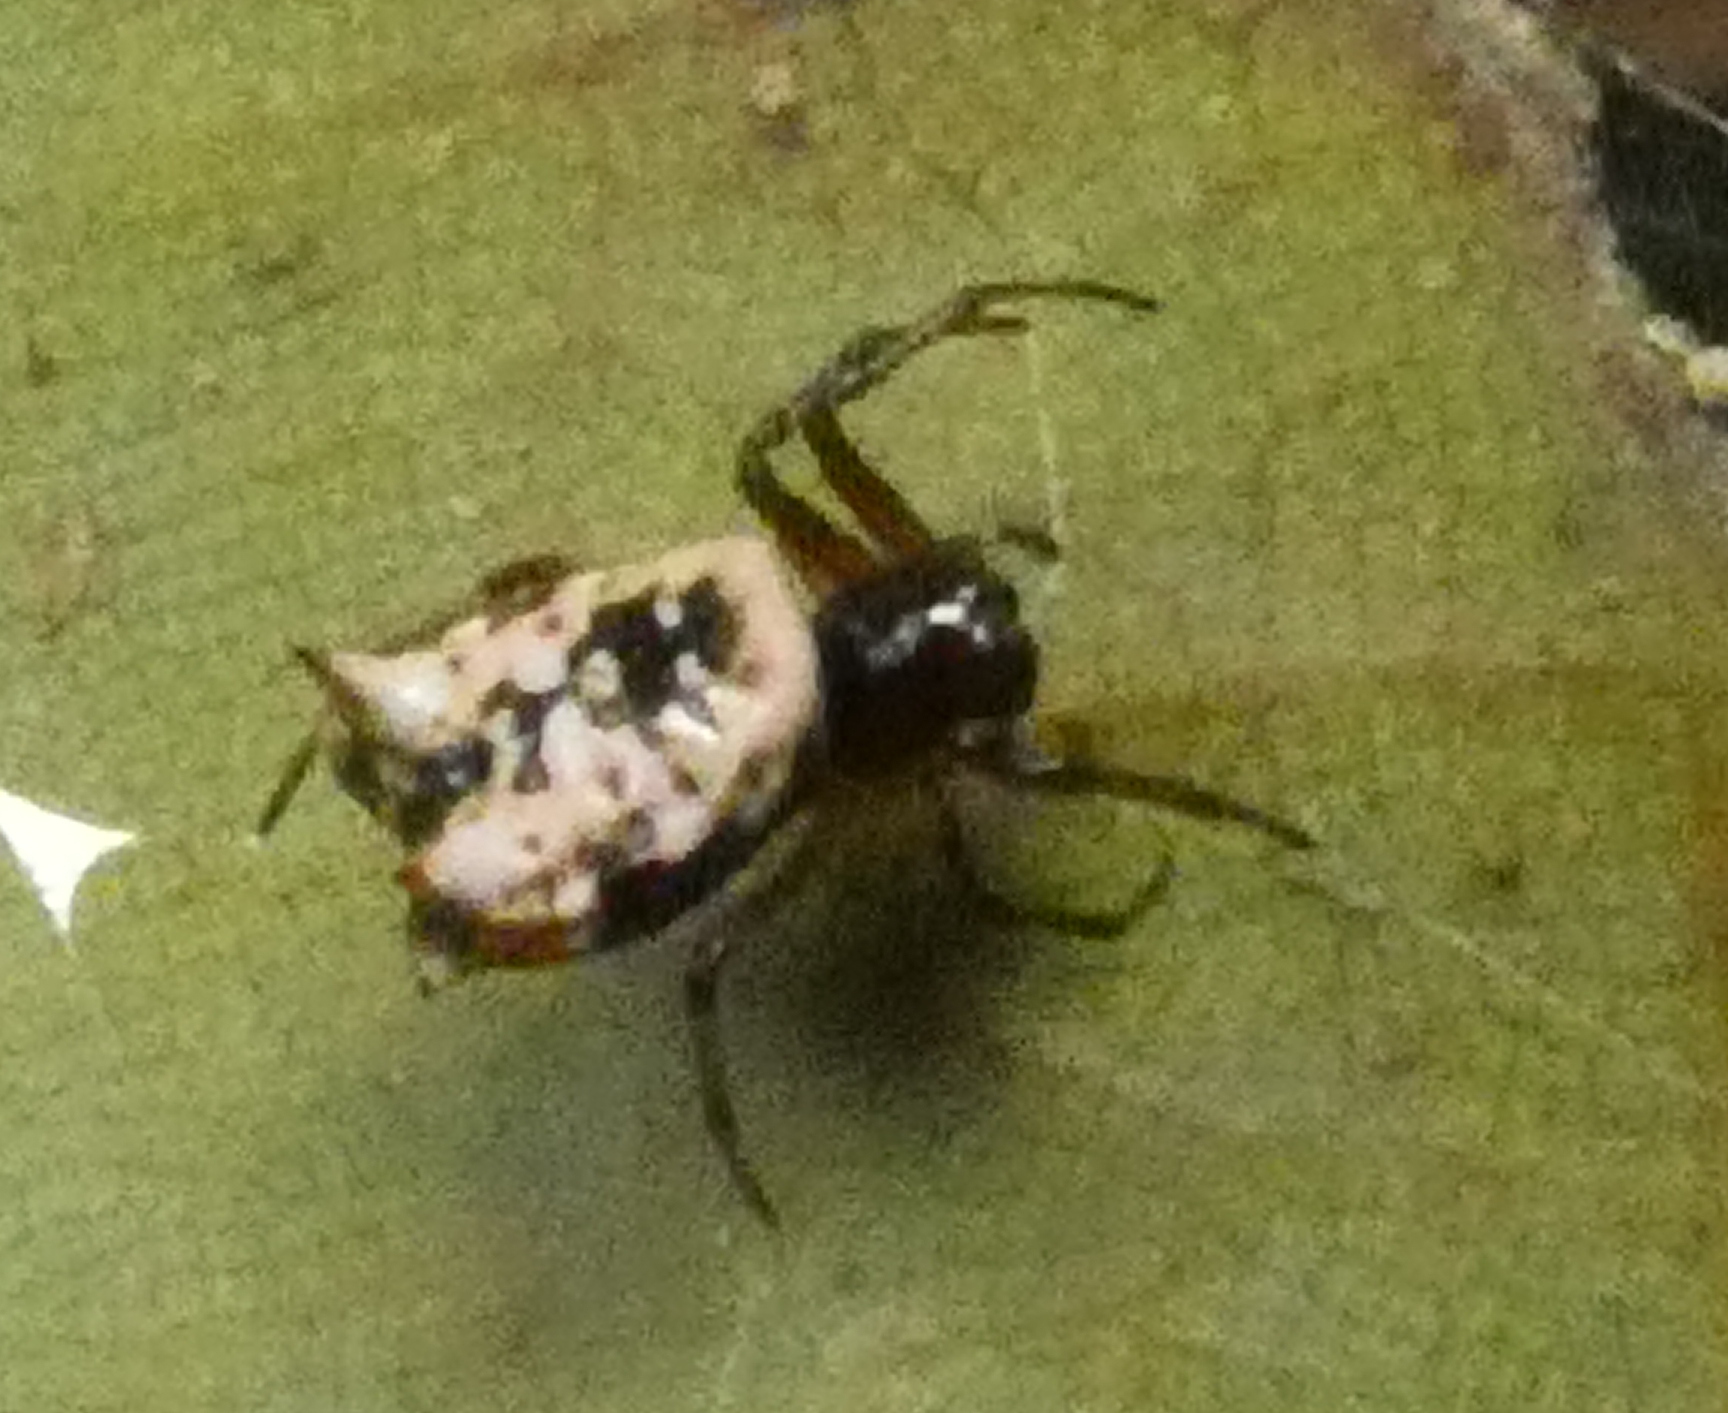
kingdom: Animalia
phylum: Arthropoda
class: Arachnida
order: Araneae
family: Araneidae
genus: Micrathena
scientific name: Micrathena patruelis
